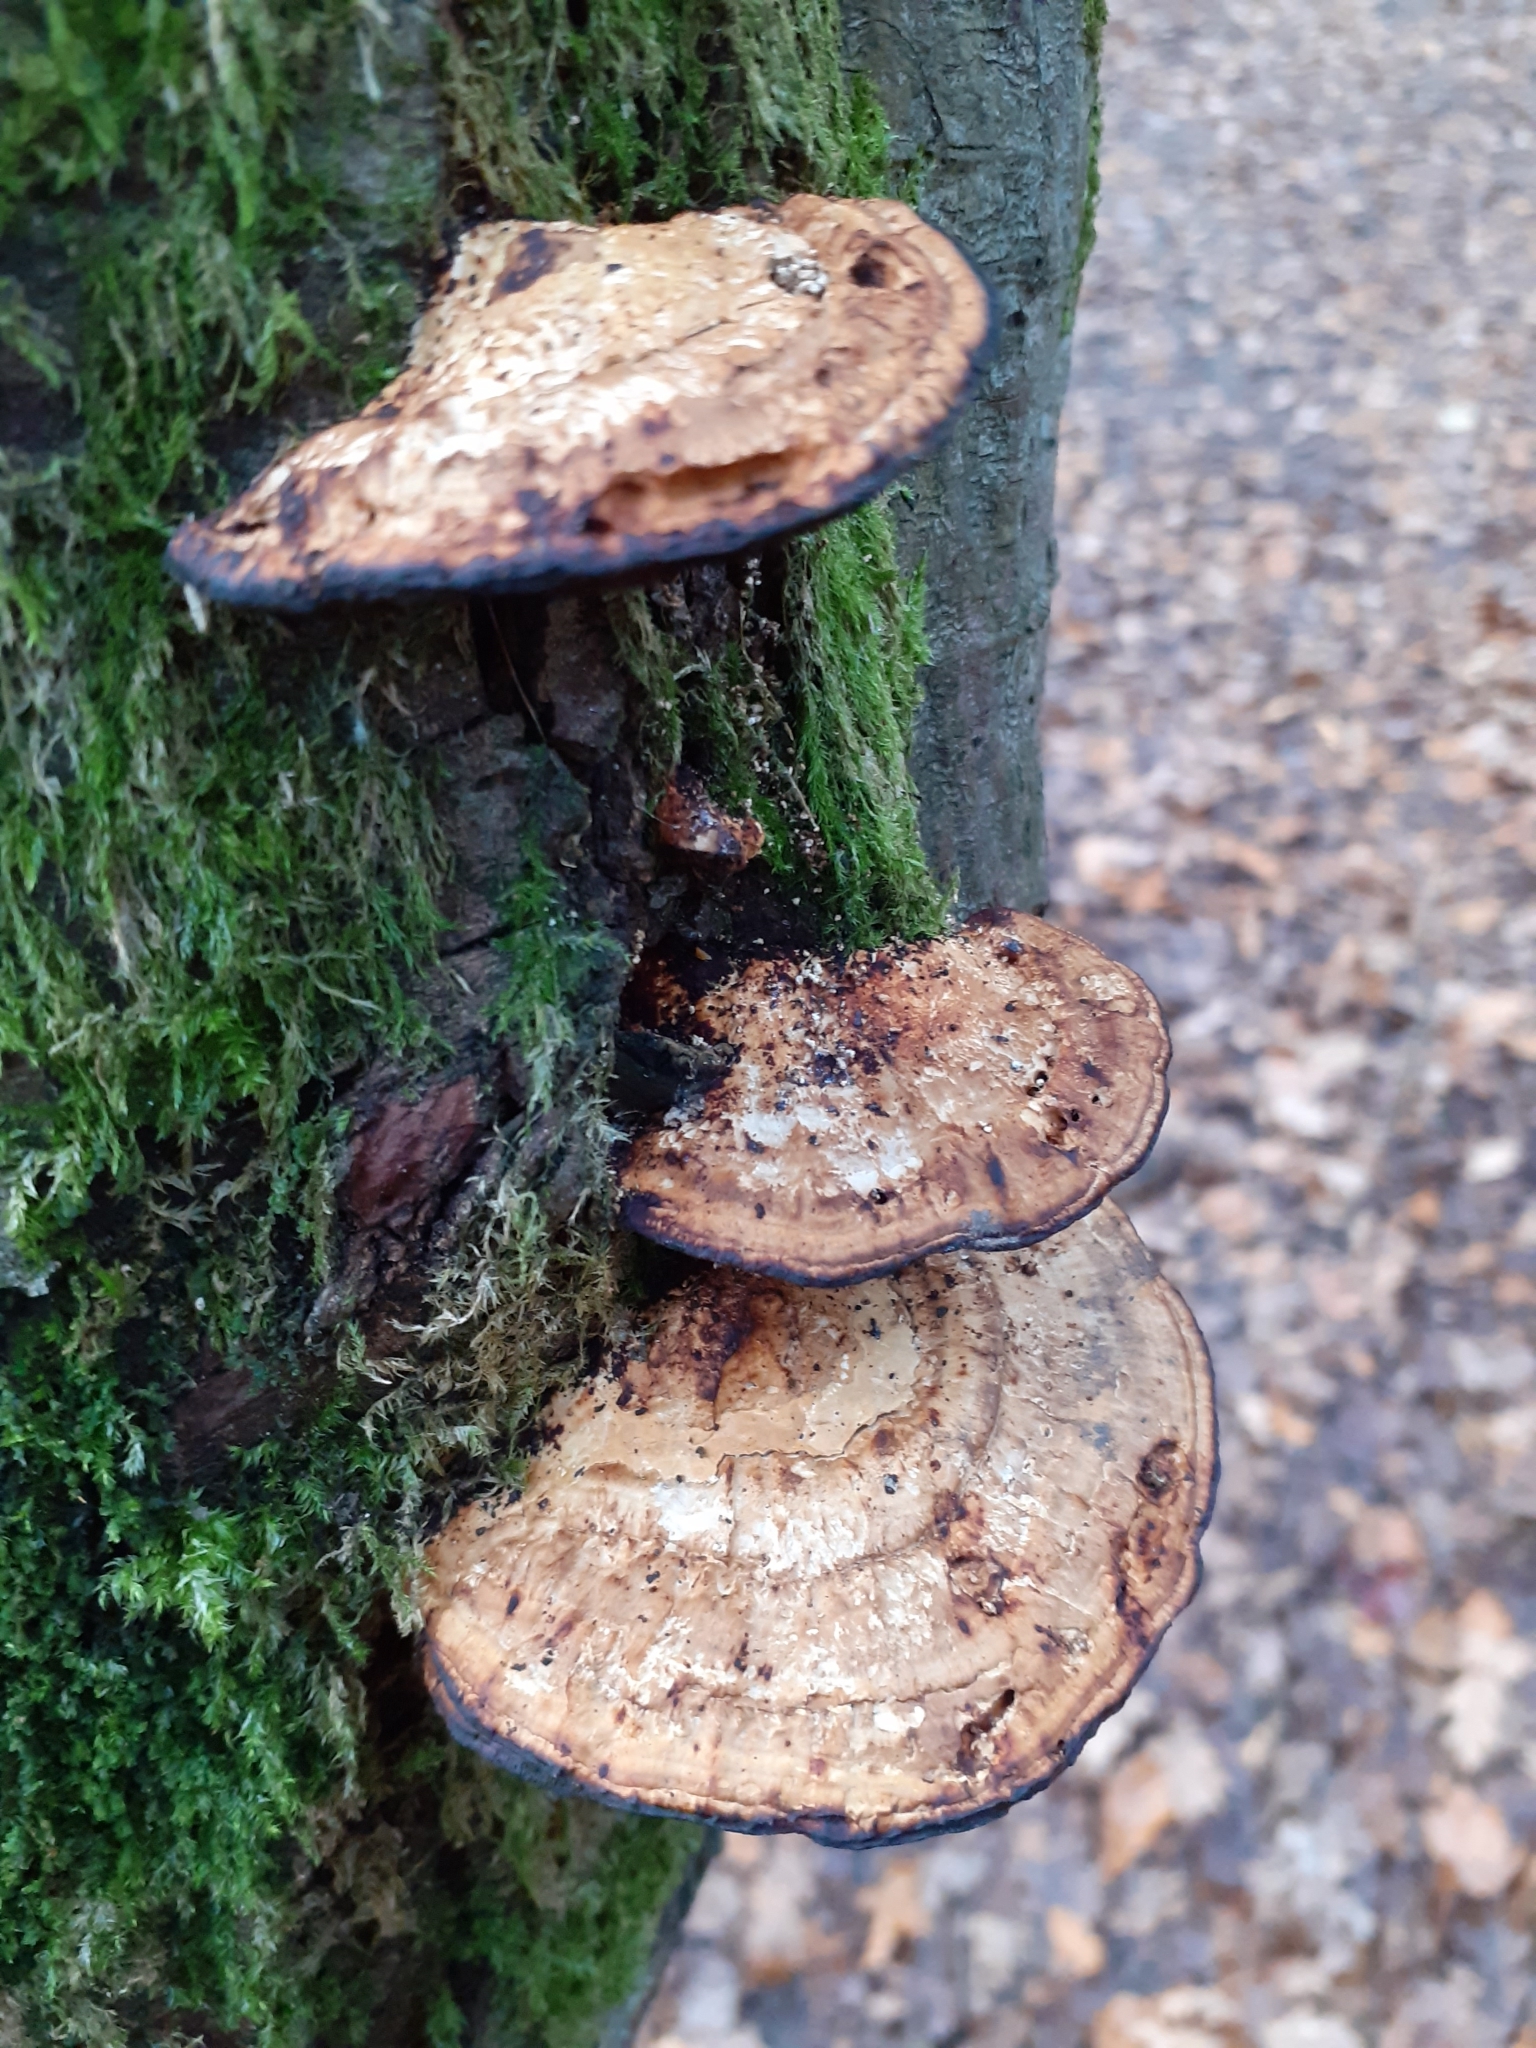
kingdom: Fungi
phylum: Basidiomycota
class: Agaricomycetes
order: Polyporales
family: Polyporaceae
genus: Daedaleopsis
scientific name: Daedaleopsis confragosa
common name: Blushing bracket
